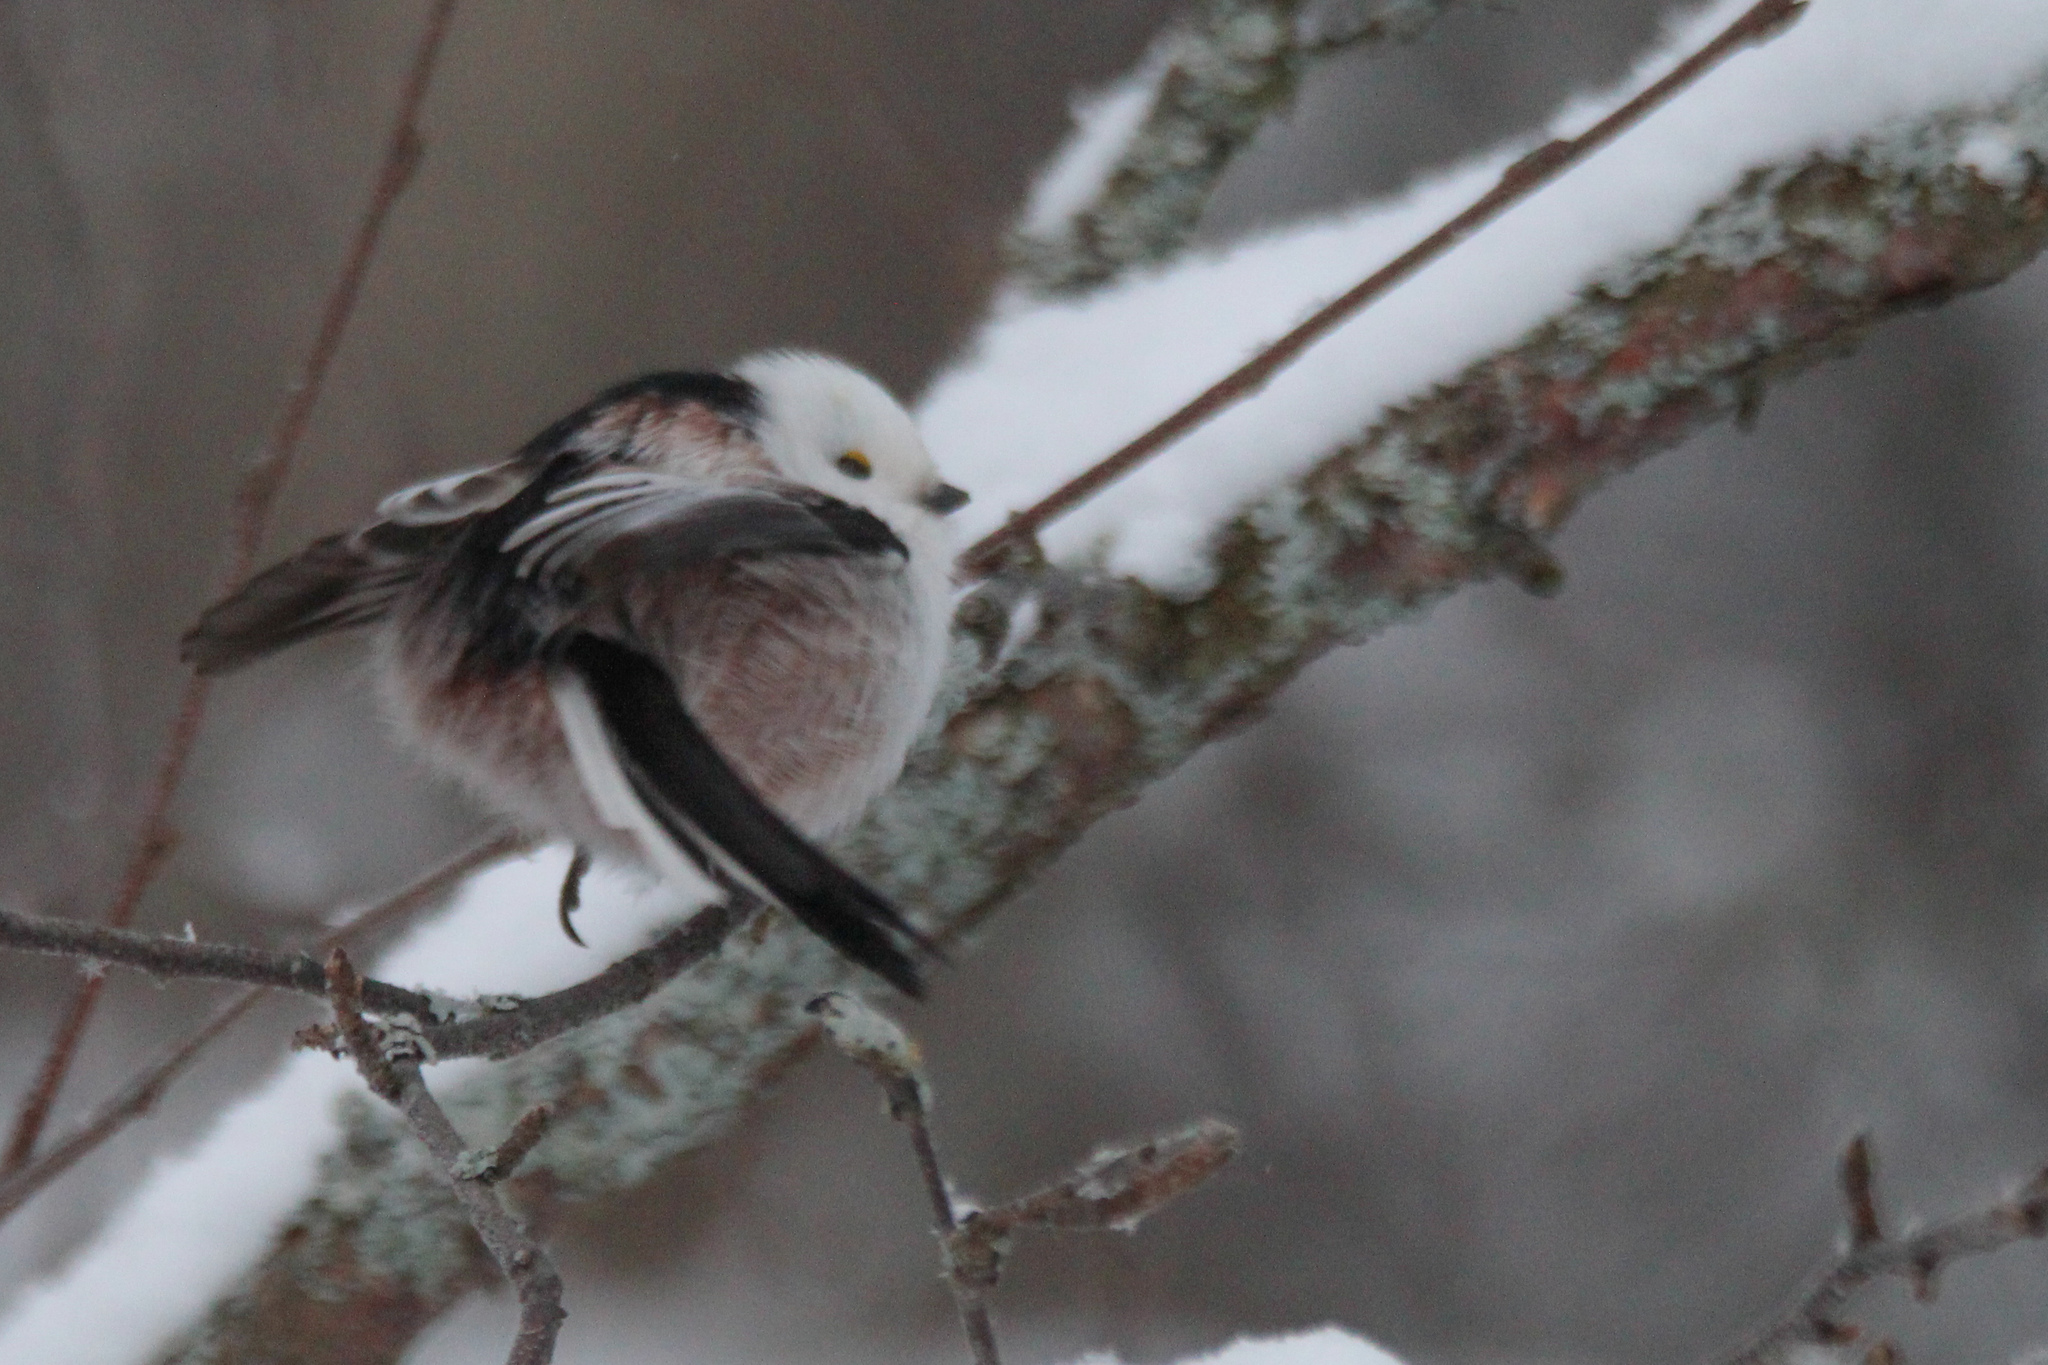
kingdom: Animalia
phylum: Chordata
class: Aves
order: Passeriformes
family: Aegithalidae
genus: Aegithalos
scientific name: Aegithalos caudatus
